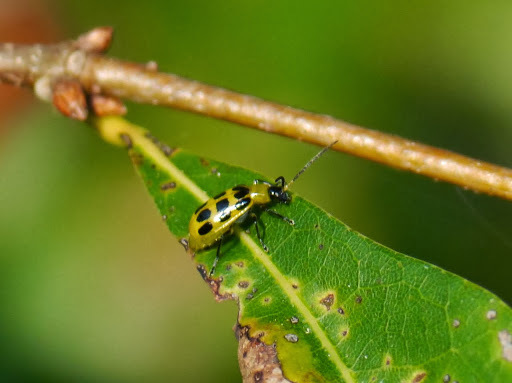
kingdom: Animalia
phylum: Arthropoda
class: Insecta
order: Coleoptera
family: Chrysomelidae
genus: Diabrotica
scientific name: Diabrotica undecimpunctata
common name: Spotted cucumber beetle
